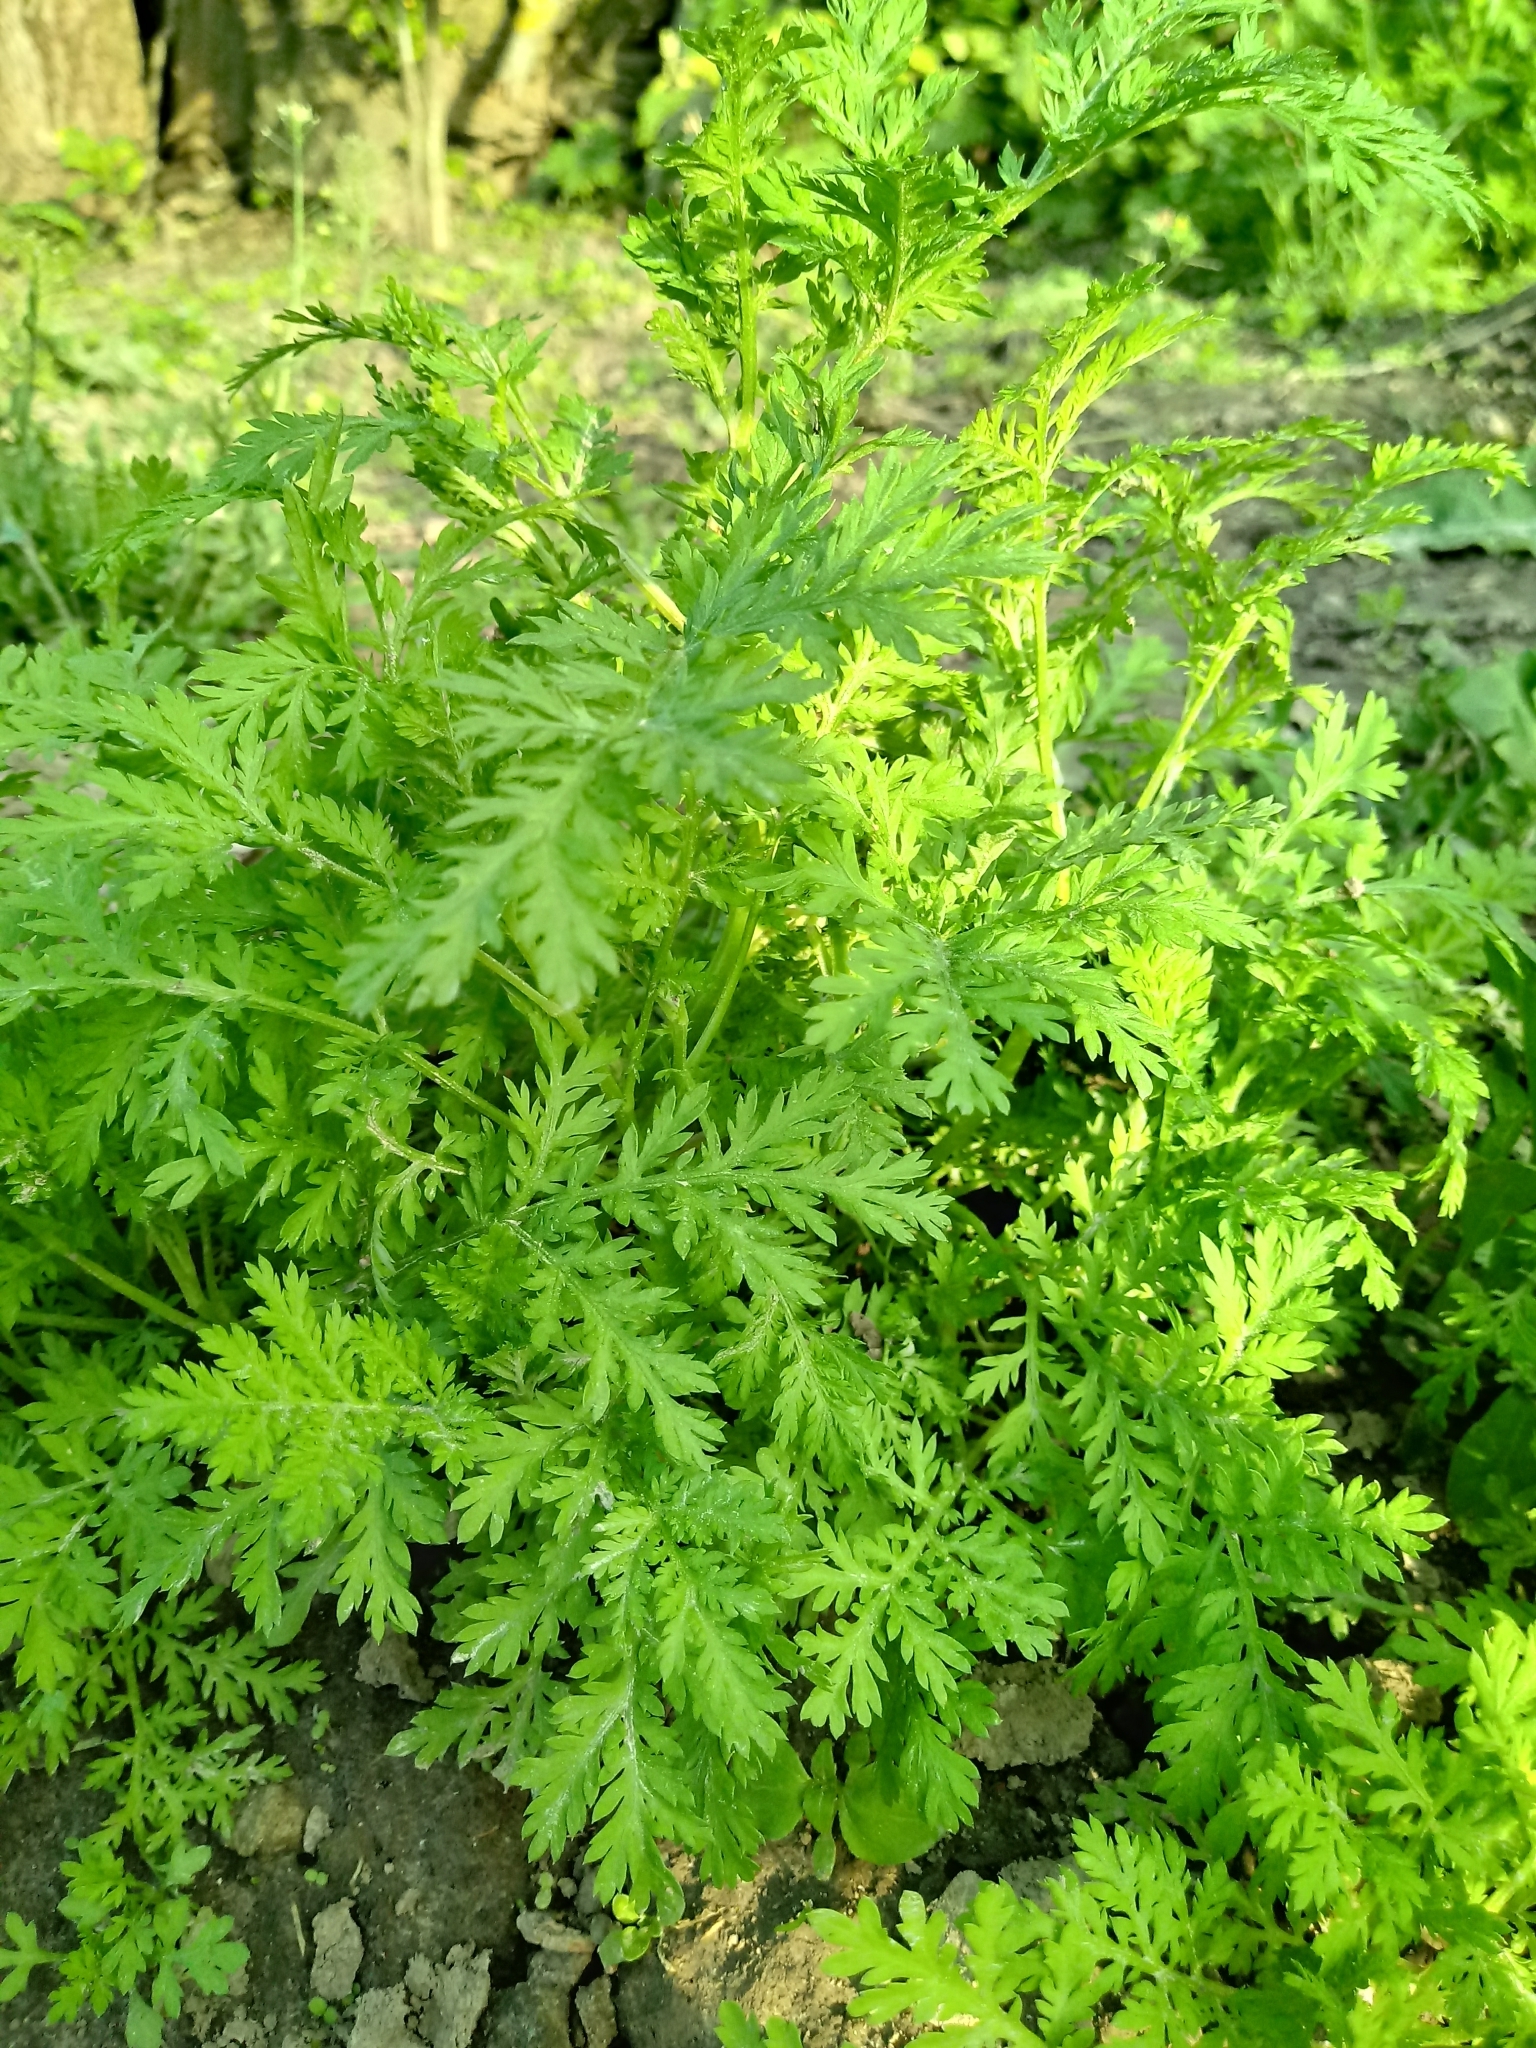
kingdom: Plantae
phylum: Tracheophyta
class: Magnoliopsida
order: Asterales
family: Asteraceae
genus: Artemisia
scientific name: Artemisia annua
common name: Sweet sagewort
